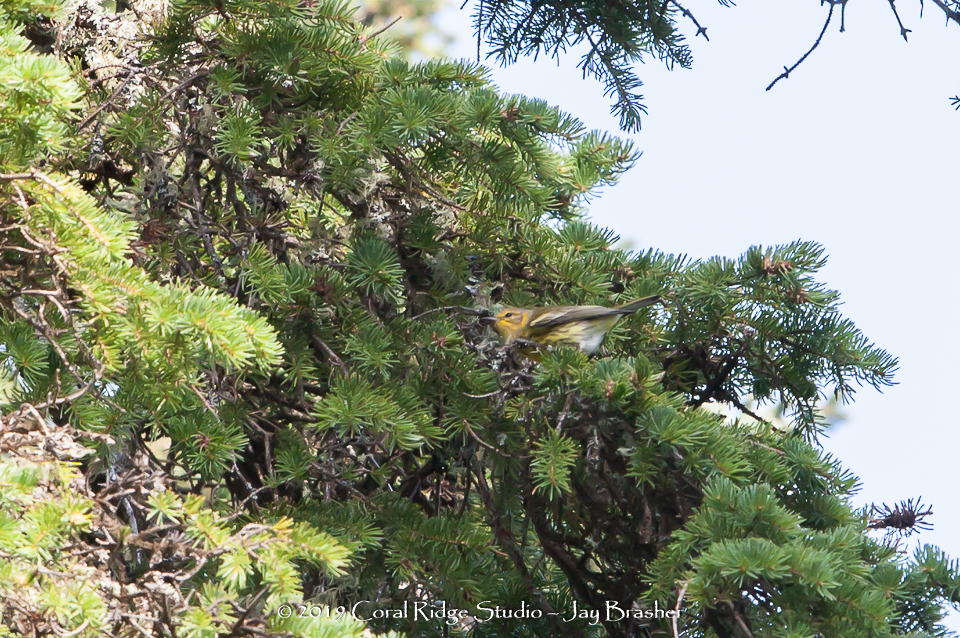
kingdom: Animalia
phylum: Chordata
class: Aves
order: Passeriformes
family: Parulidae
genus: Setophaga
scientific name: Setophaga fusca
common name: Blackburnian warbler
